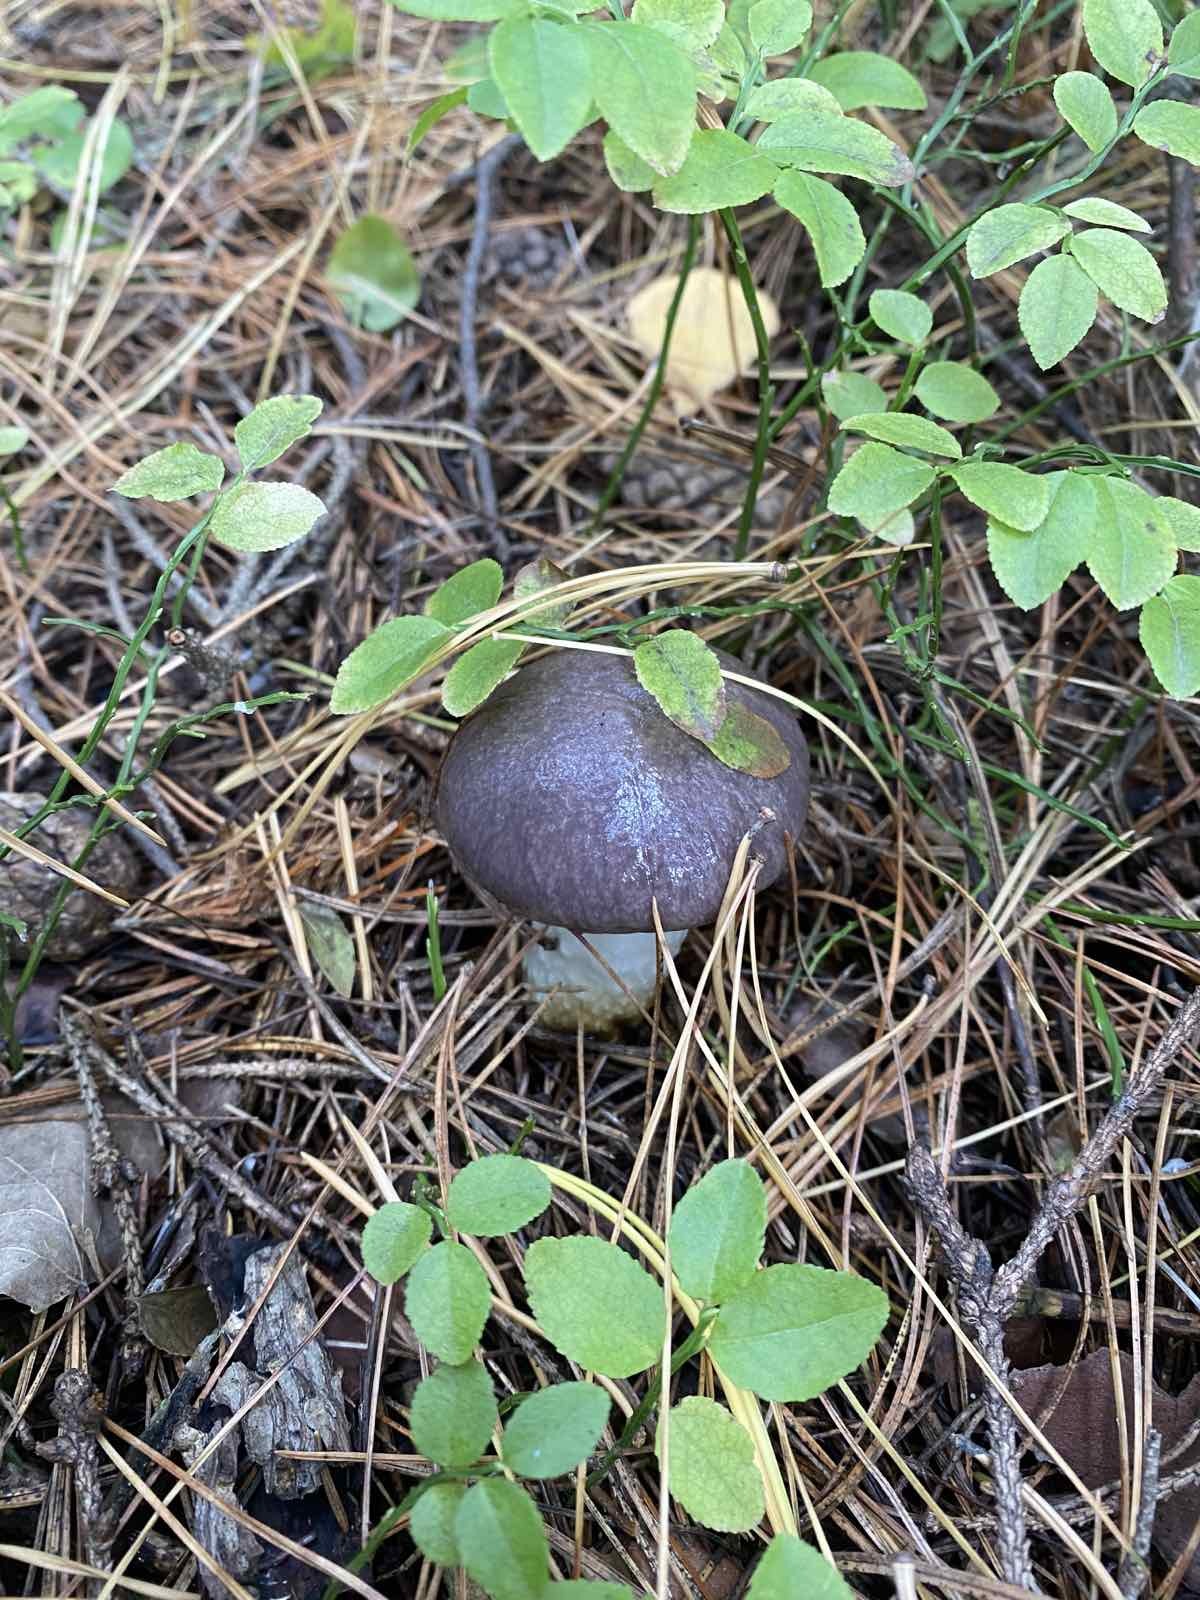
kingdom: Fungi
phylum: Basidiomycota
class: Agaricomycetes
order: Boletales
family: Gomphidiaceae
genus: Gomphidius
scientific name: Gomphidius glutinosus
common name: Slimy spike
